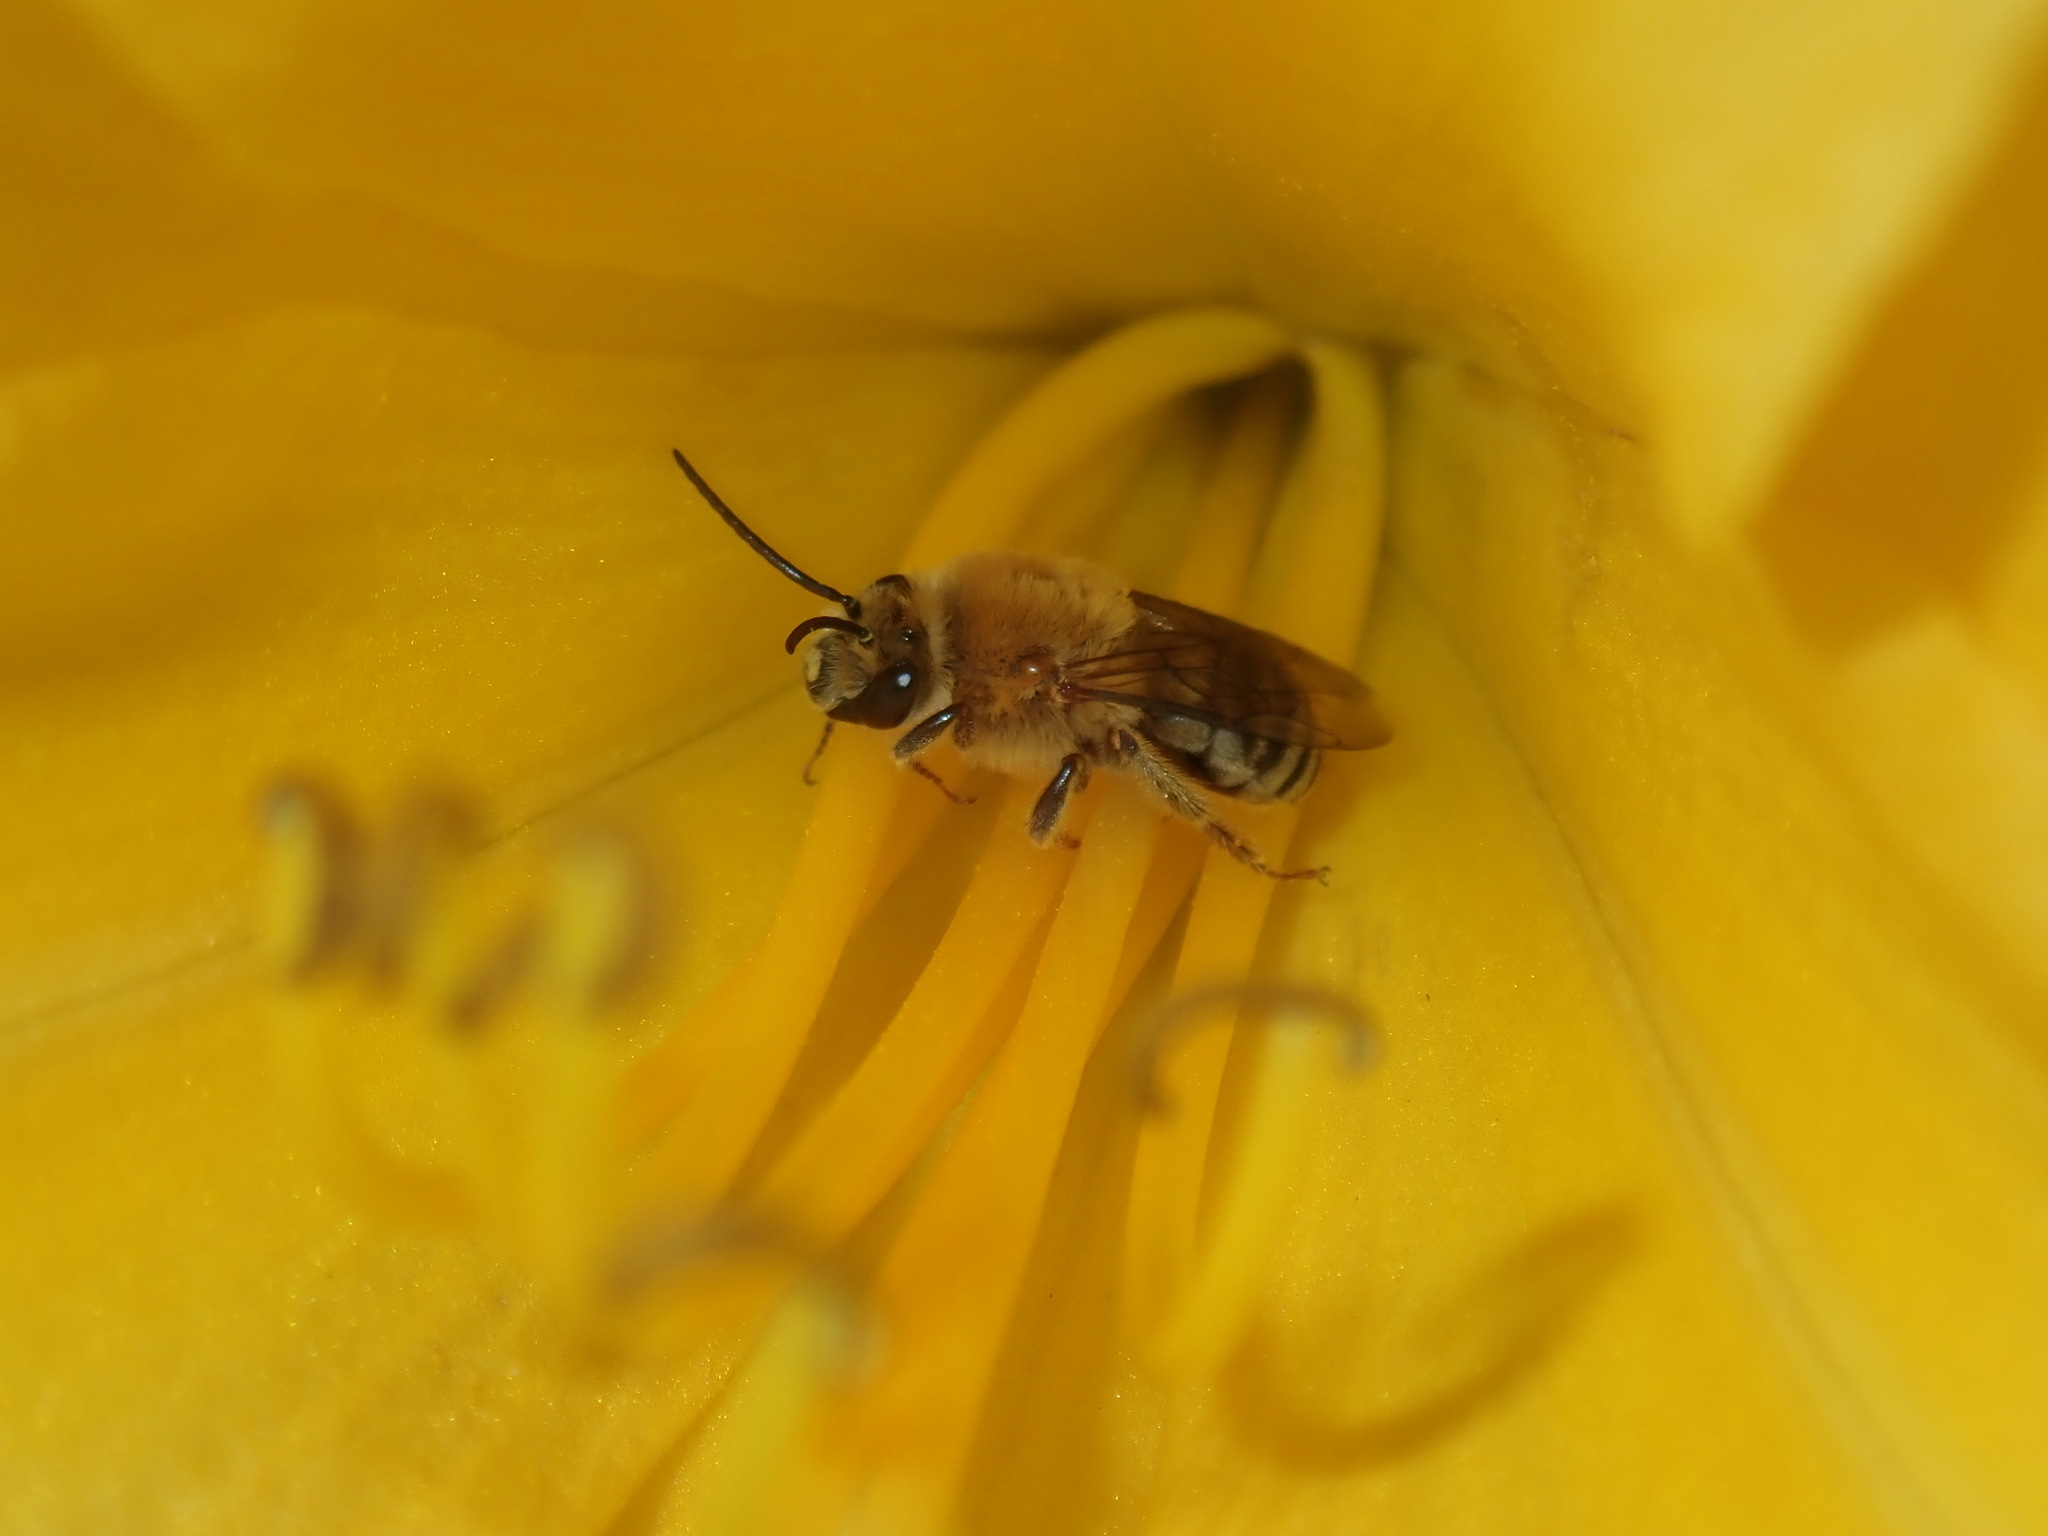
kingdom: Animalia
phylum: Arthropoda
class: Insecta
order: Hymenoptera
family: Apidae
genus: Peponapis
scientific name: Peponapis pruinosa
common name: Pruinose squash bee
